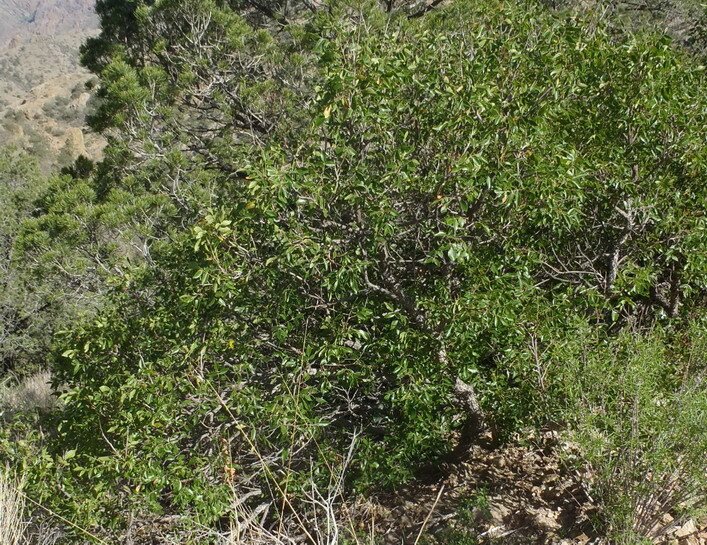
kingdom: Plantae
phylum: Tracheophyta
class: Magnoliopsida
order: Sapindales
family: Anacardiaceae
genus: Rhus
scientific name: Rhus virens
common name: Evergreen sumac
